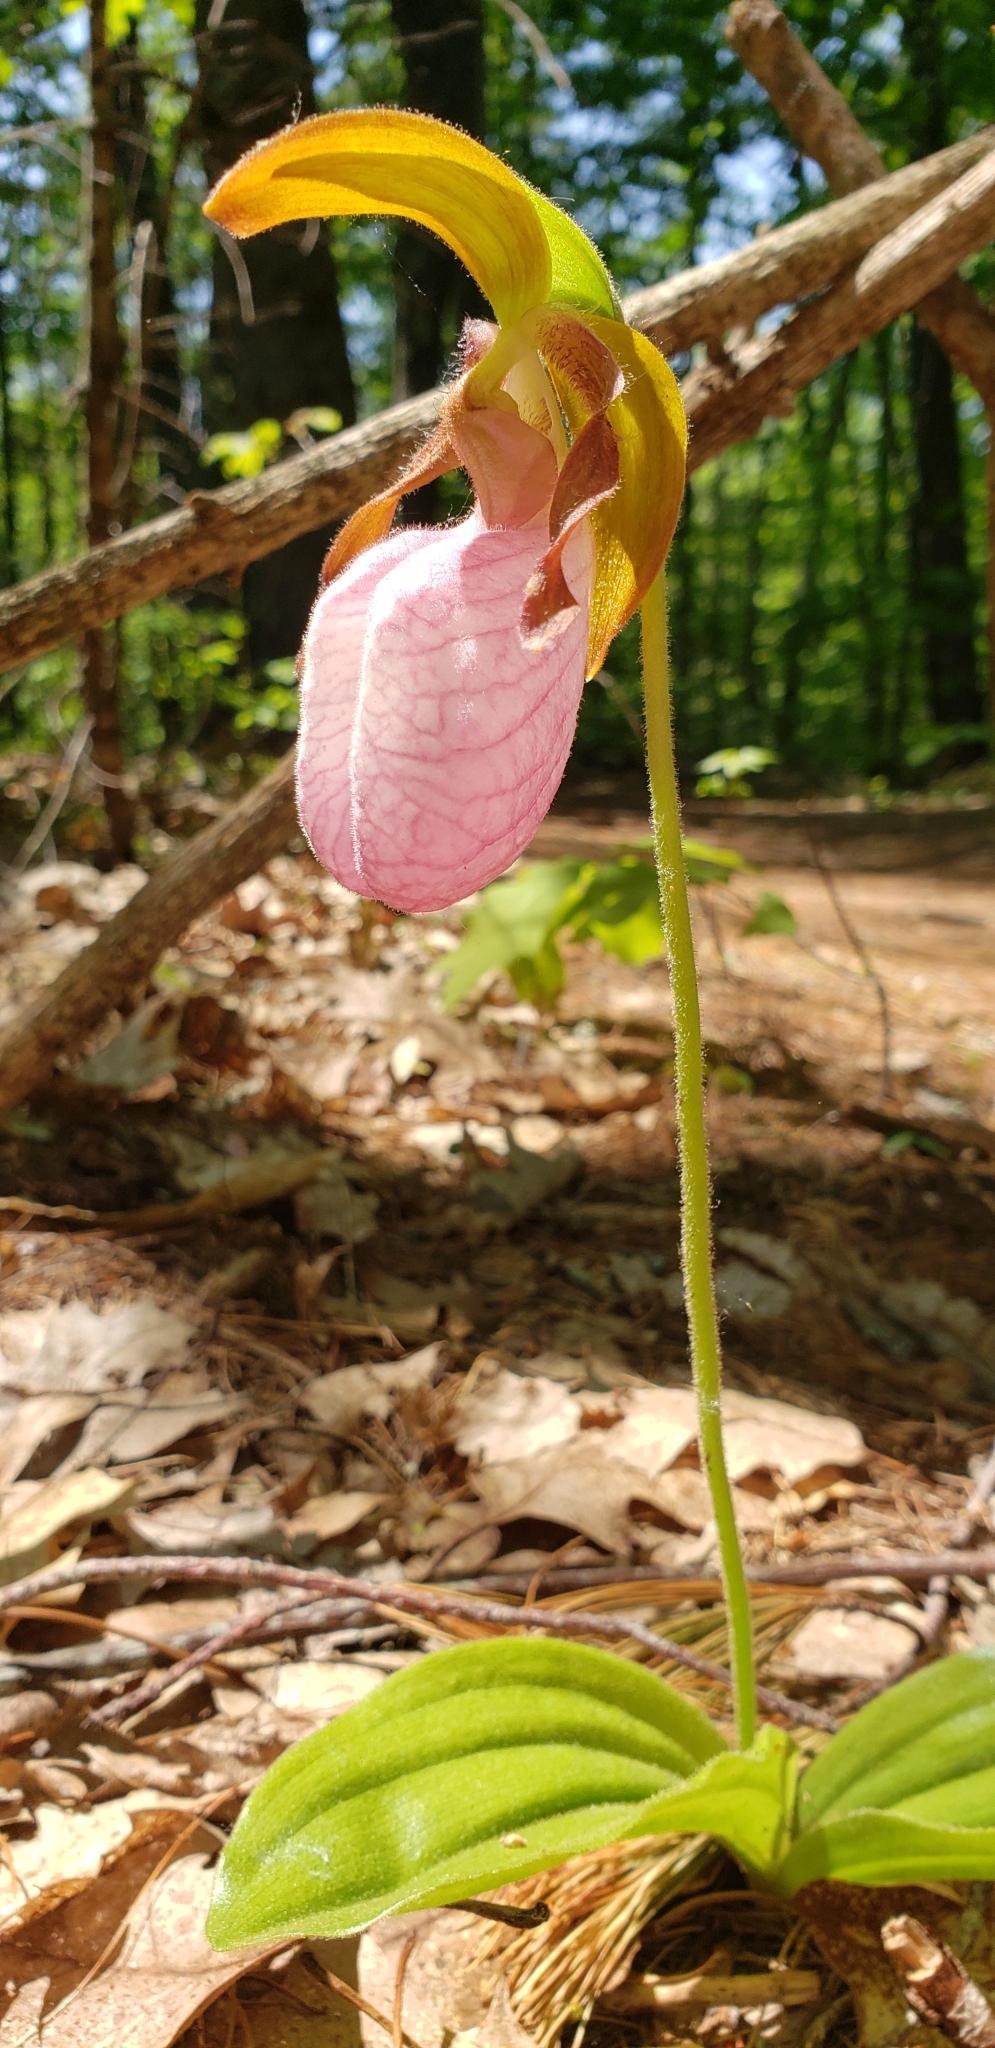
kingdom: Plantae
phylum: Tracheophyta
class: Liliopsida
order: Asparagales
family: Orchidaceae
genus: Cypripedium
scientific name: Cypripedium acaule
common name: Pink lady's-slipper
